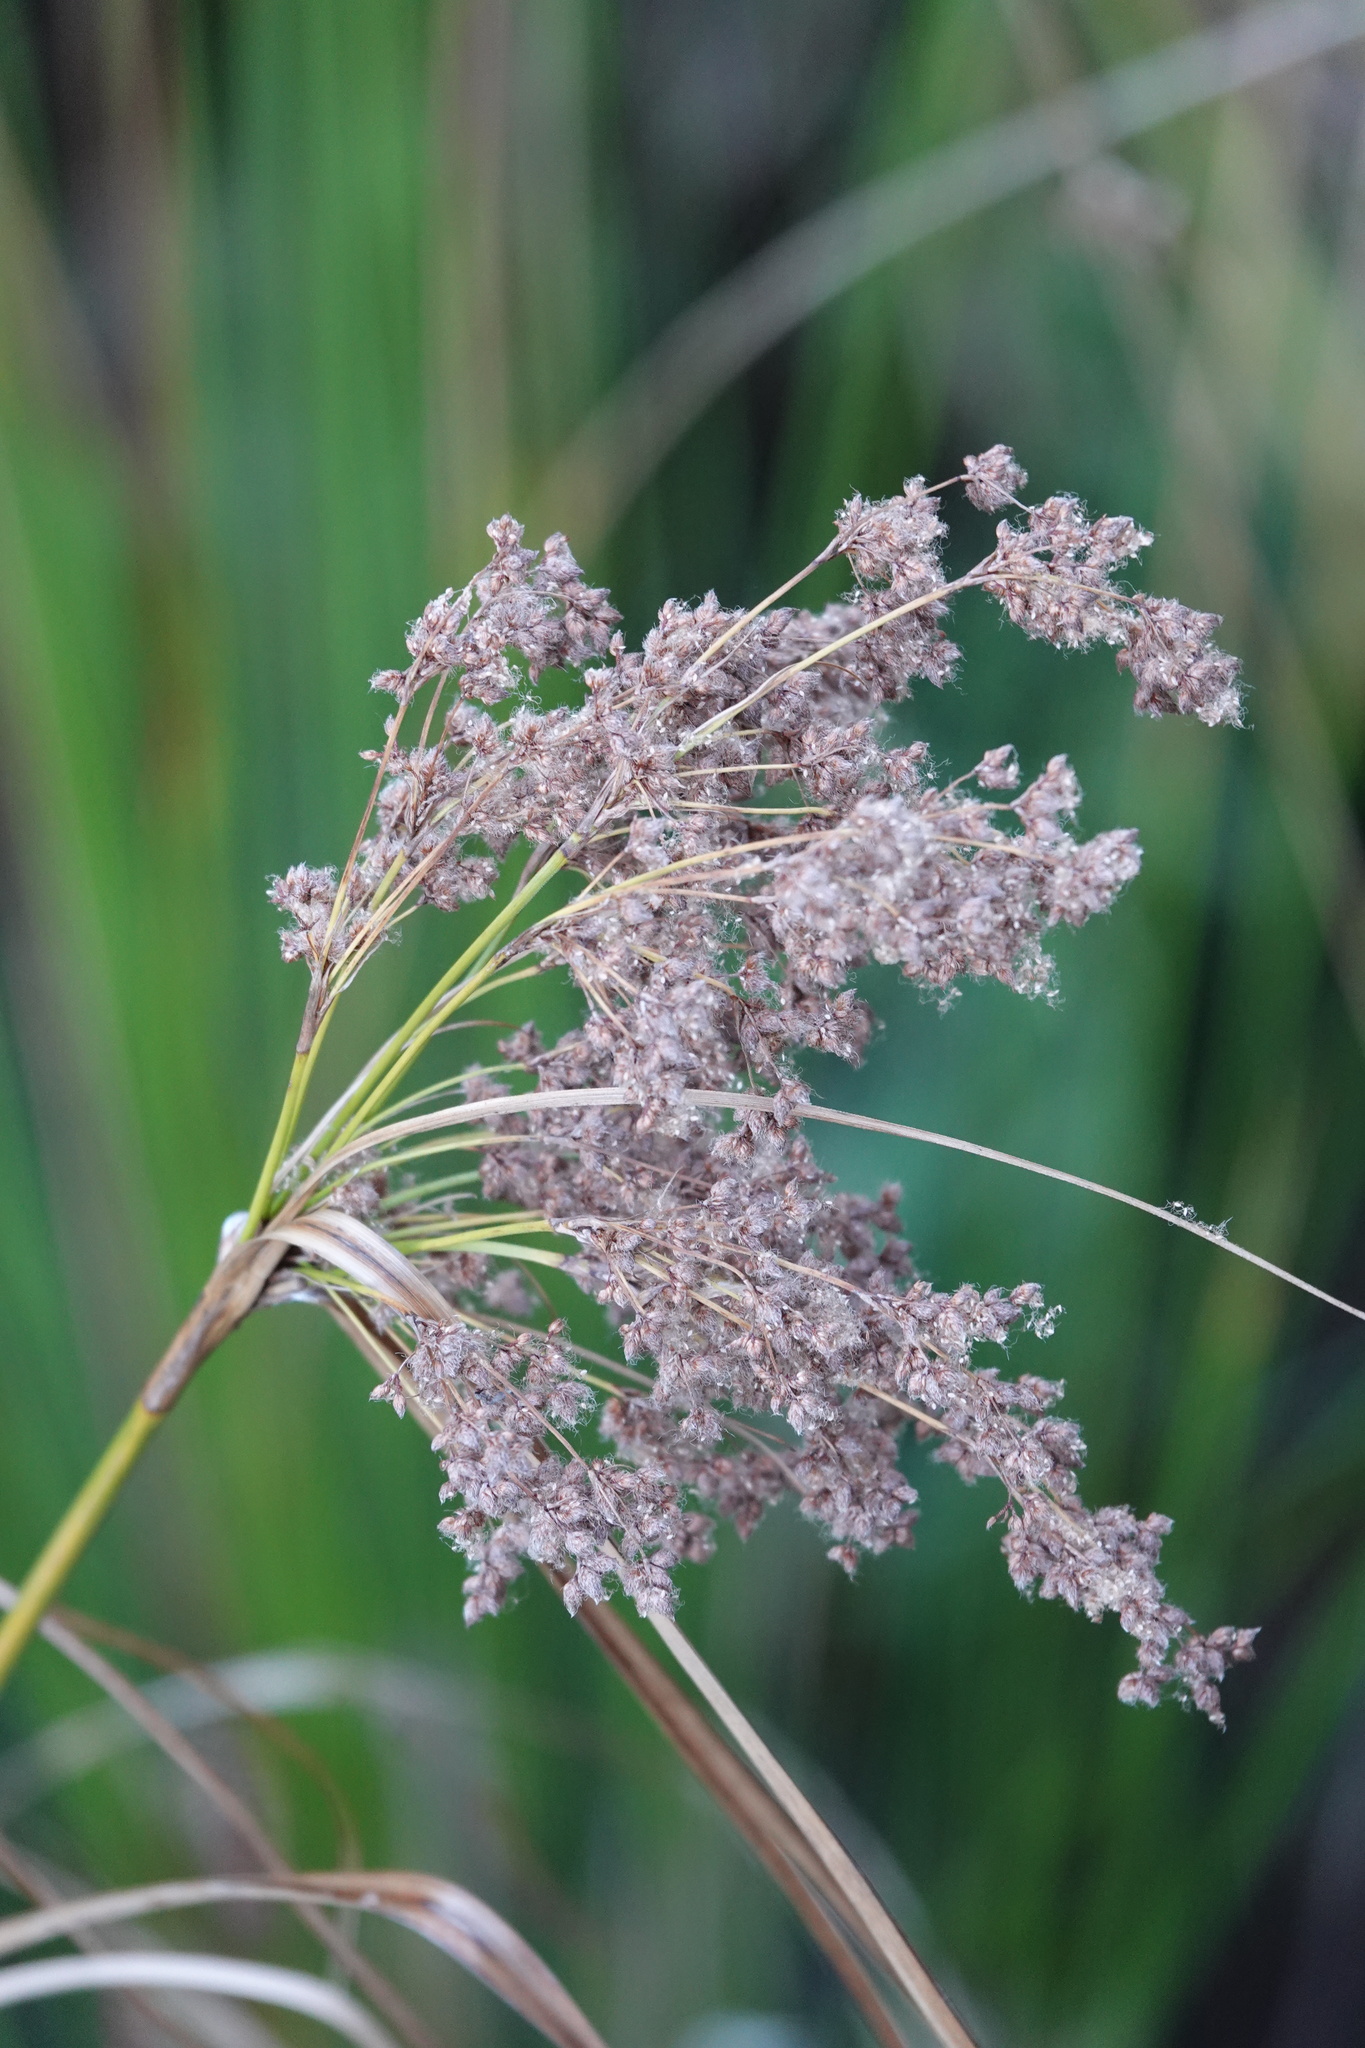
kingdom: Plantae
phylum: Tracheophyta
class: Liliopsida
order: Poales
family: Cyperaceae
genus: Scirpus
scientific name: Scirpus cyperinus
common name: Black-sheathed bulrush
